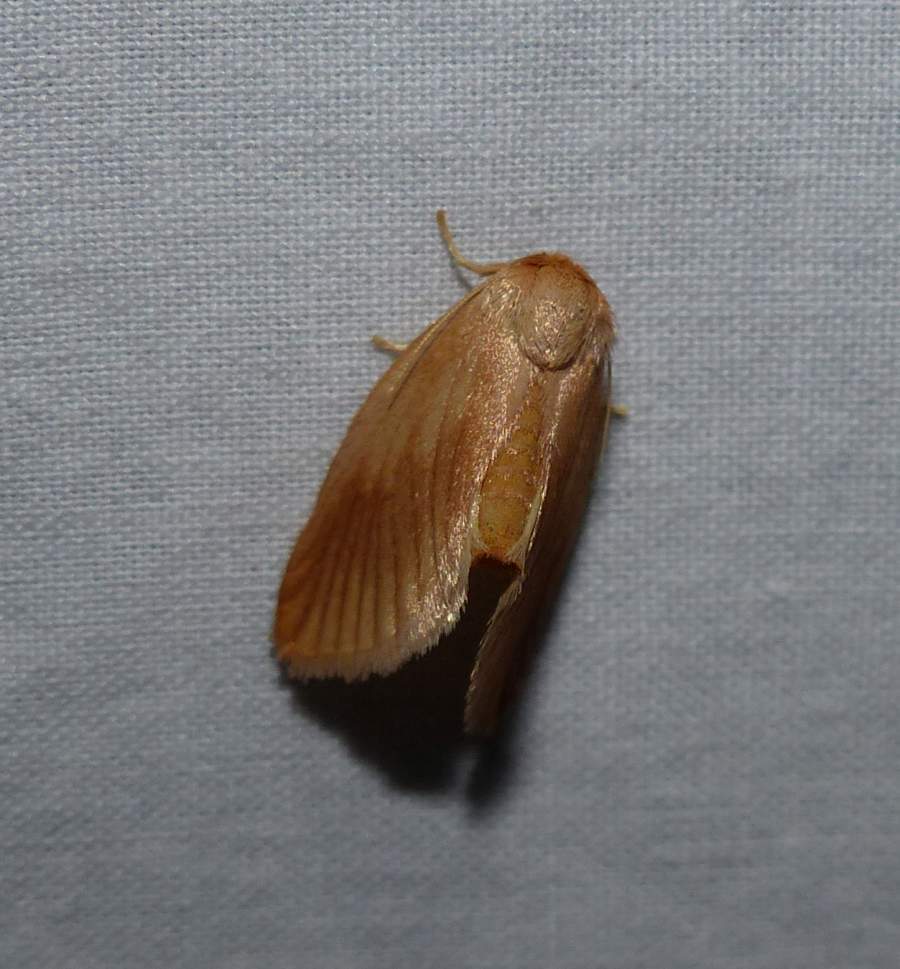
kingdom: Animalia
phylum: Arthropoda
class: Insecta
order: Lepidoptera
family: Limacodidae
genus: Tortricidia
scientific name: Tortricidia testacea
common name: Early button slug moth
